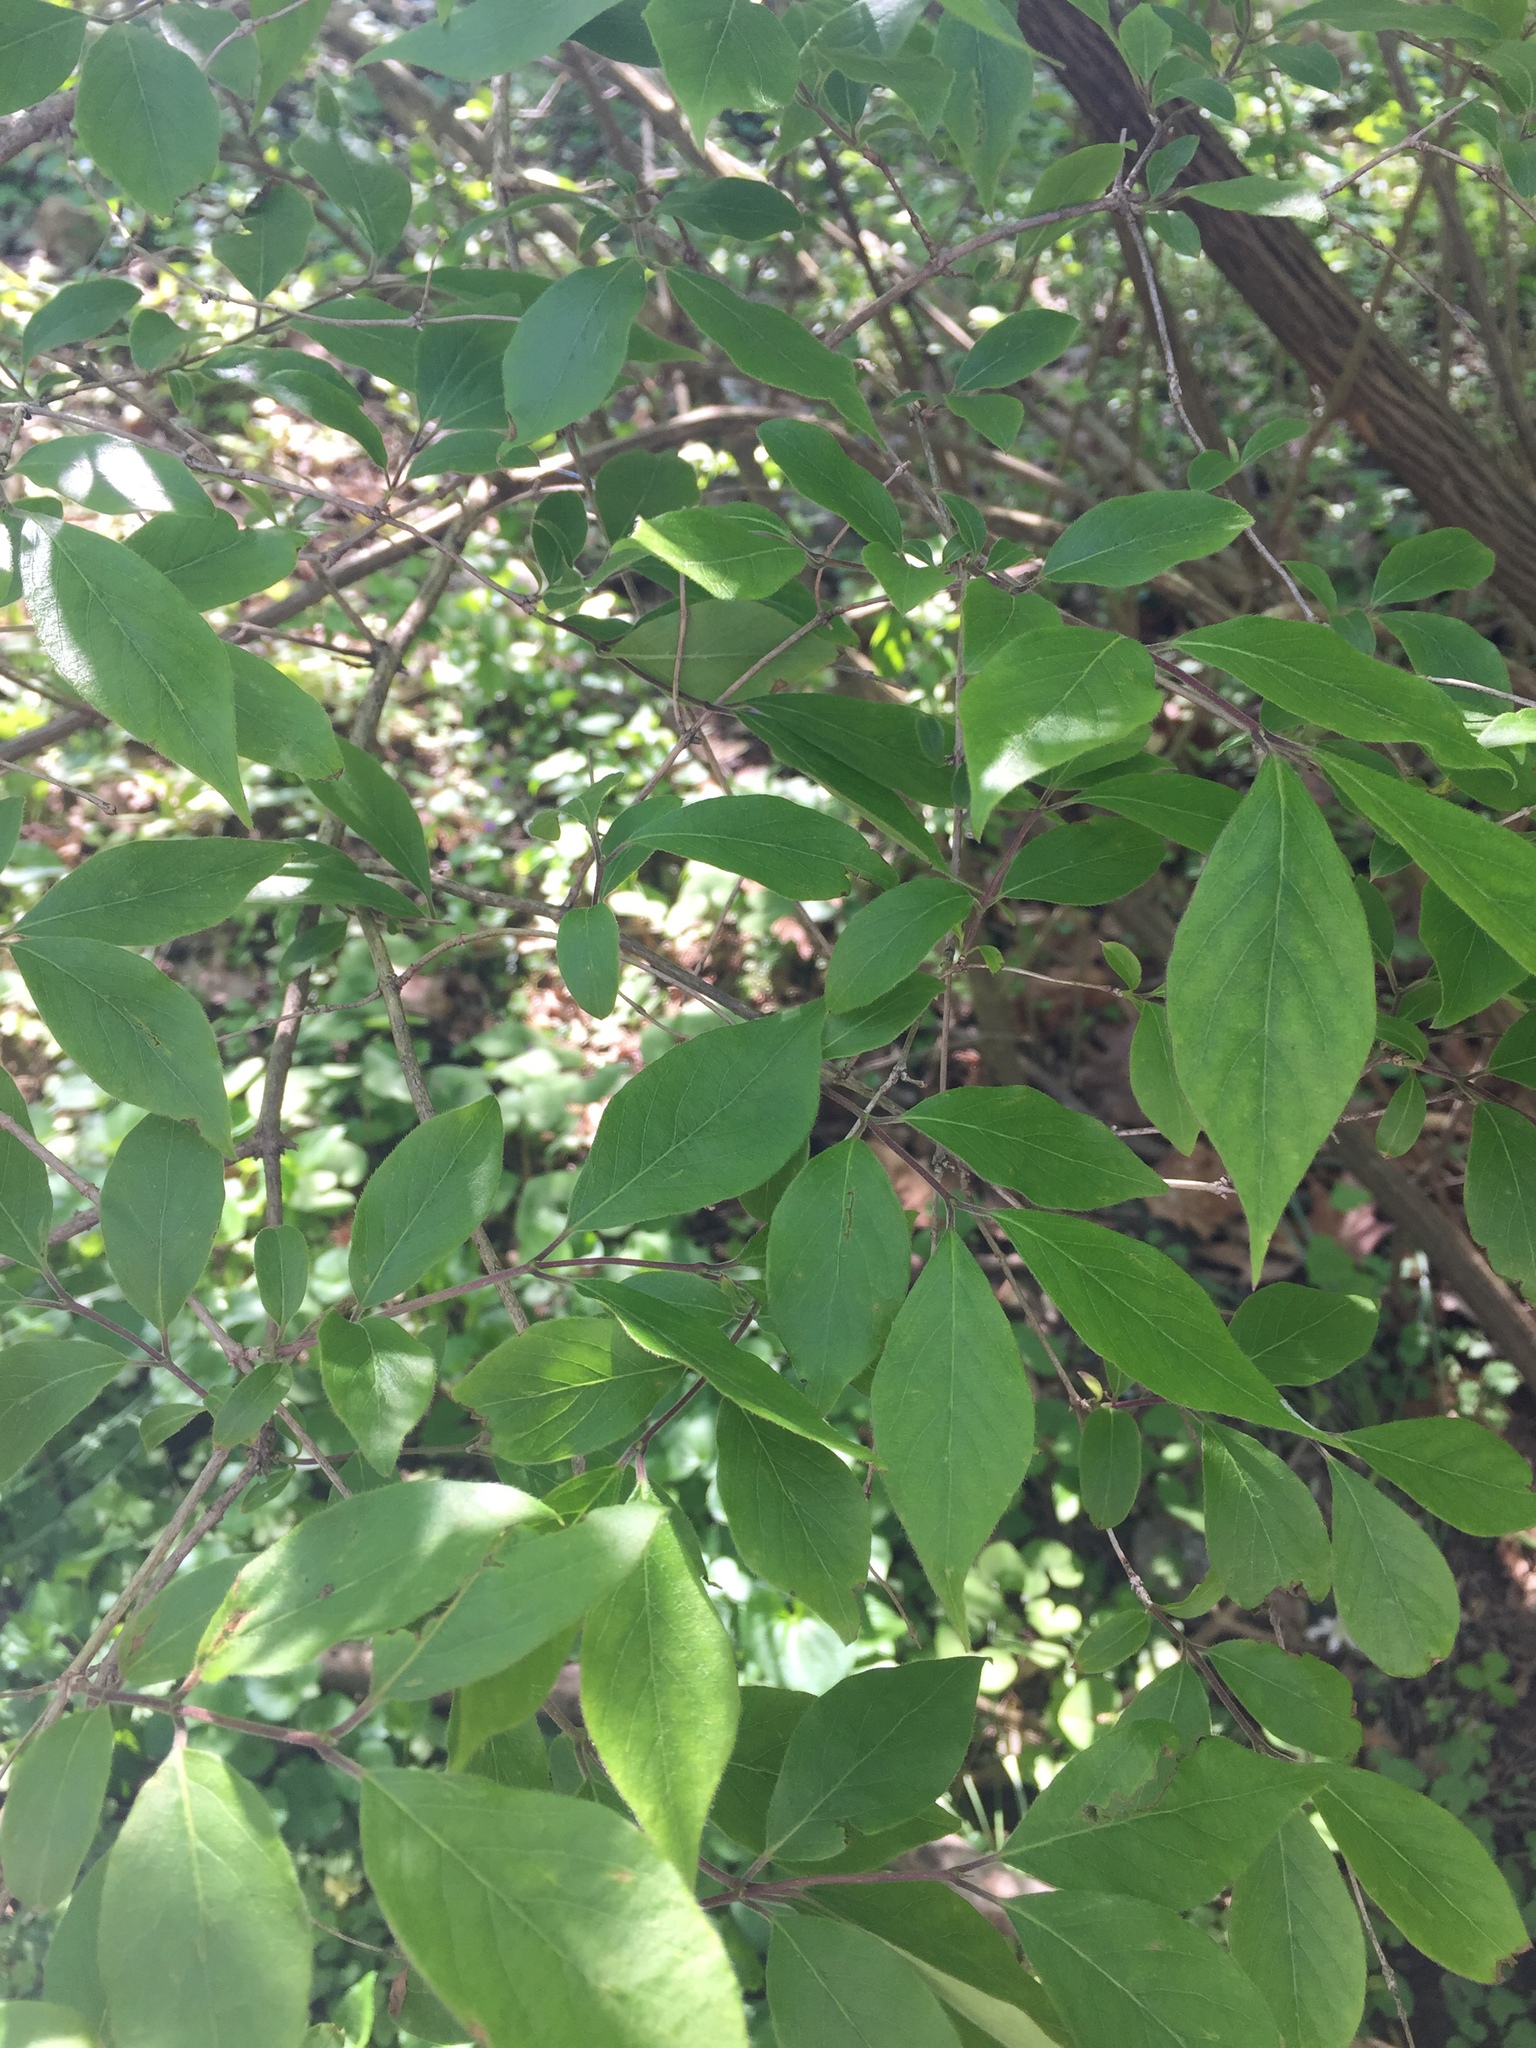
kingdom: Plantae
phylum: Tracheophyta
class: Magnoliopsida
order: Dipsacales
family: Caprifoliaceae
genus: Lonicera
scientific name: Lonicera maackii
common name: Amur honeysuckle
